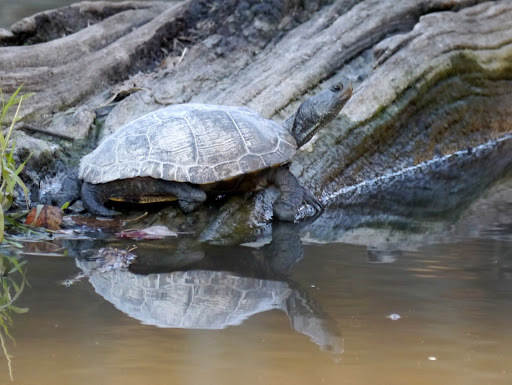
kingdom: Animalia
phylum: Chordata
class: Testudines
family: Emydidae
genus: Trachemys
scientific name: Trachemys scripta
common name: Slider
